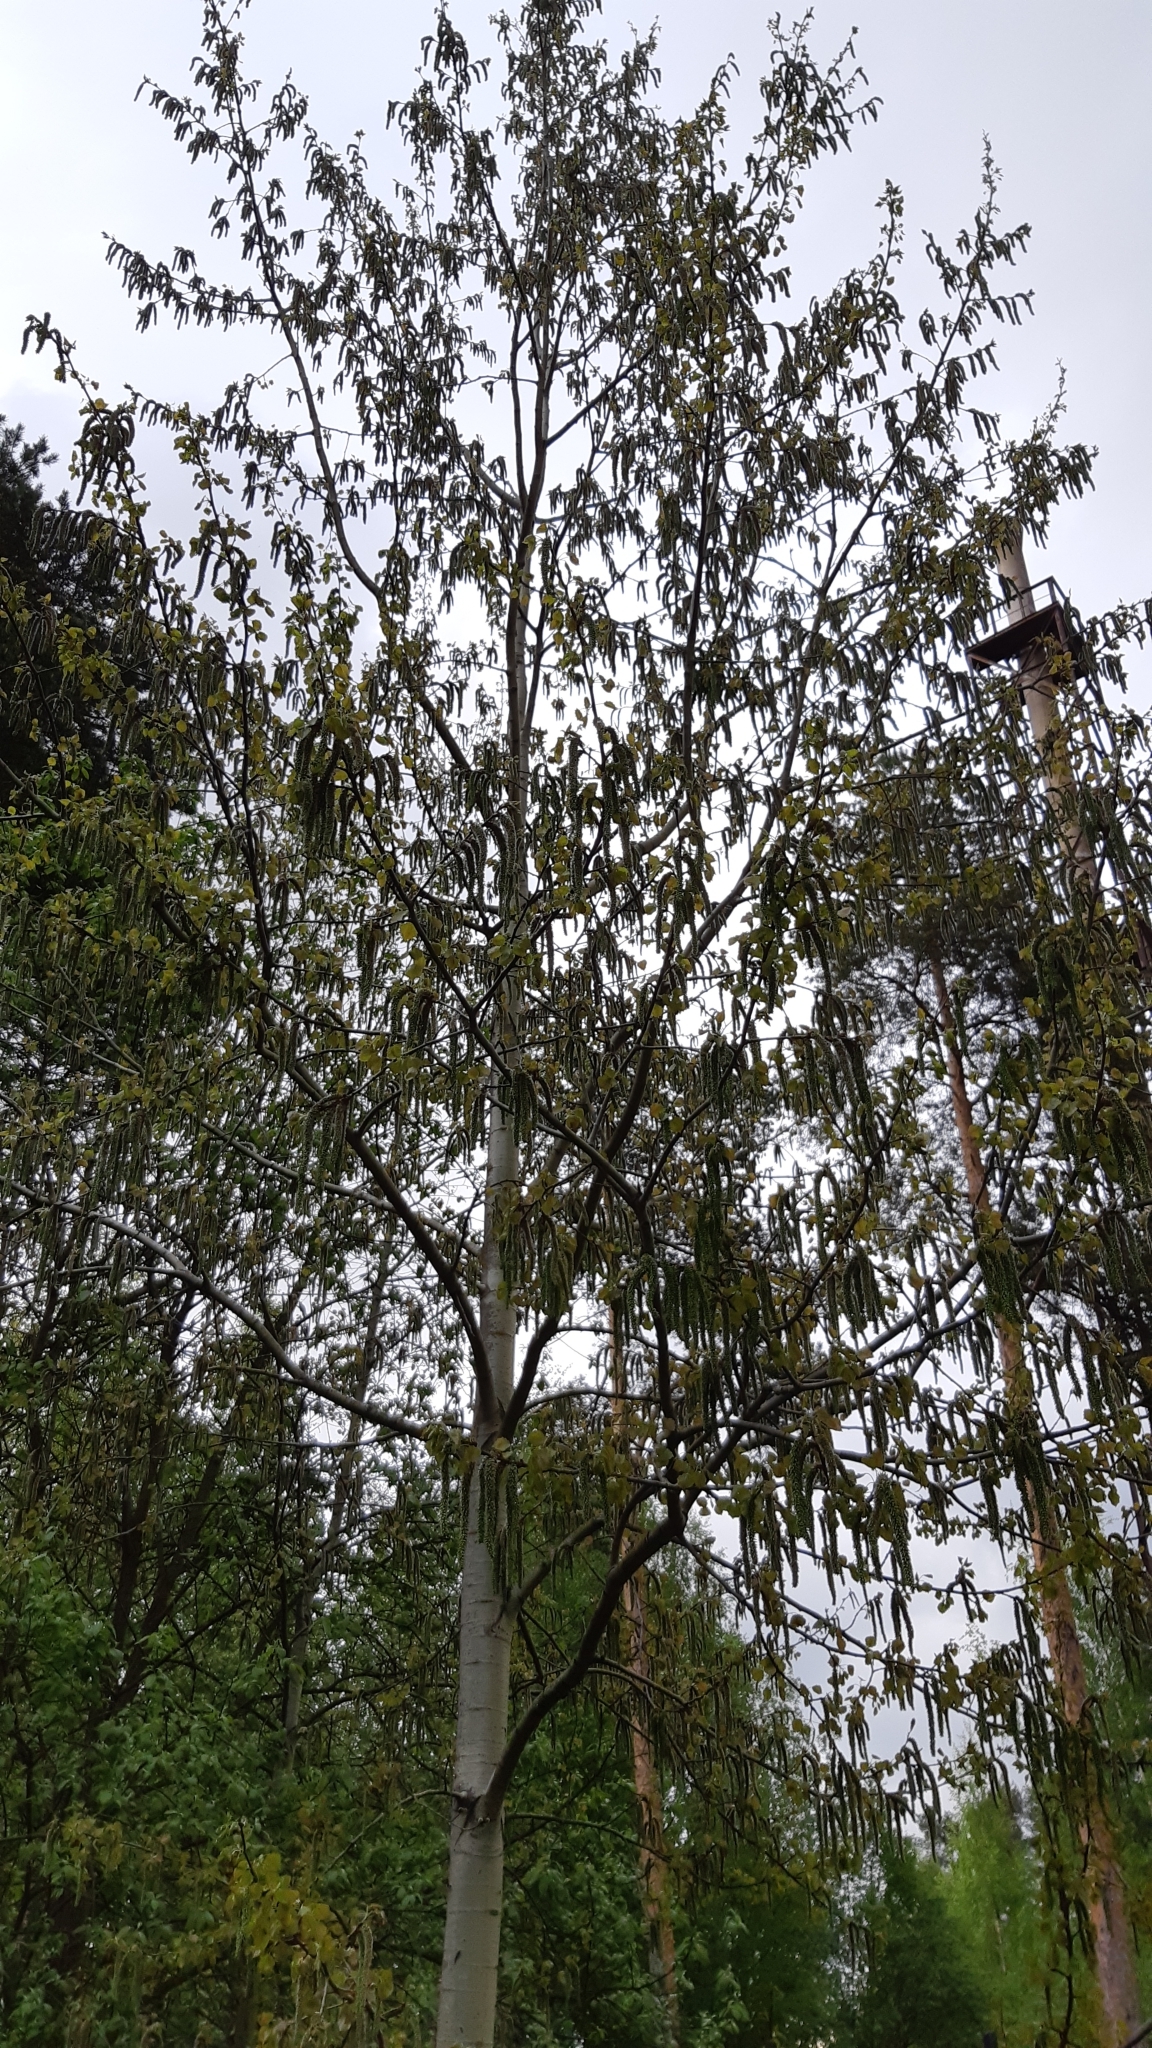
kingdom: Plantae
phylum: Tracheophyta
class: Magnoliopsida
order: Malpighiales
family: Salicaceae
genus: Populus
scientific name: Populus tremula
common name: European aspen
